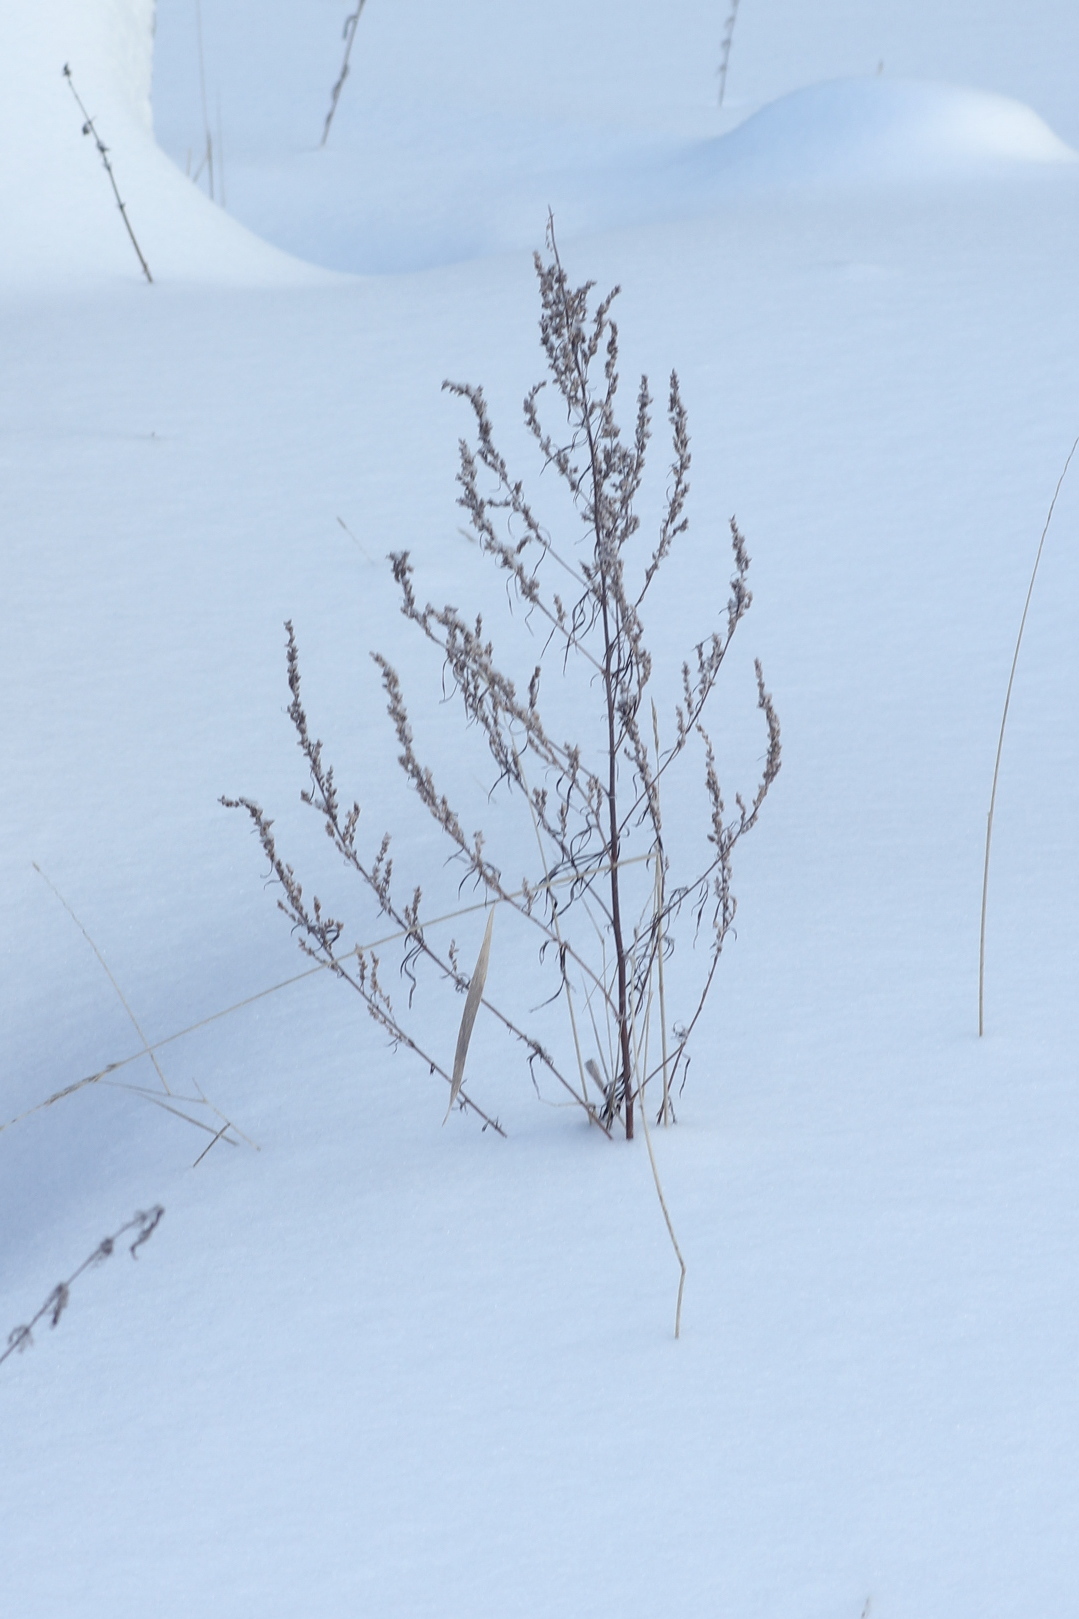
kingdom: Plantae
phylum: Tracheophyta
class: Magnoliopsida
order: Asterales
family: Asteraceae
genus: Artemisia
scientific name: Artemisia vulgaris
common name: Mugwort
